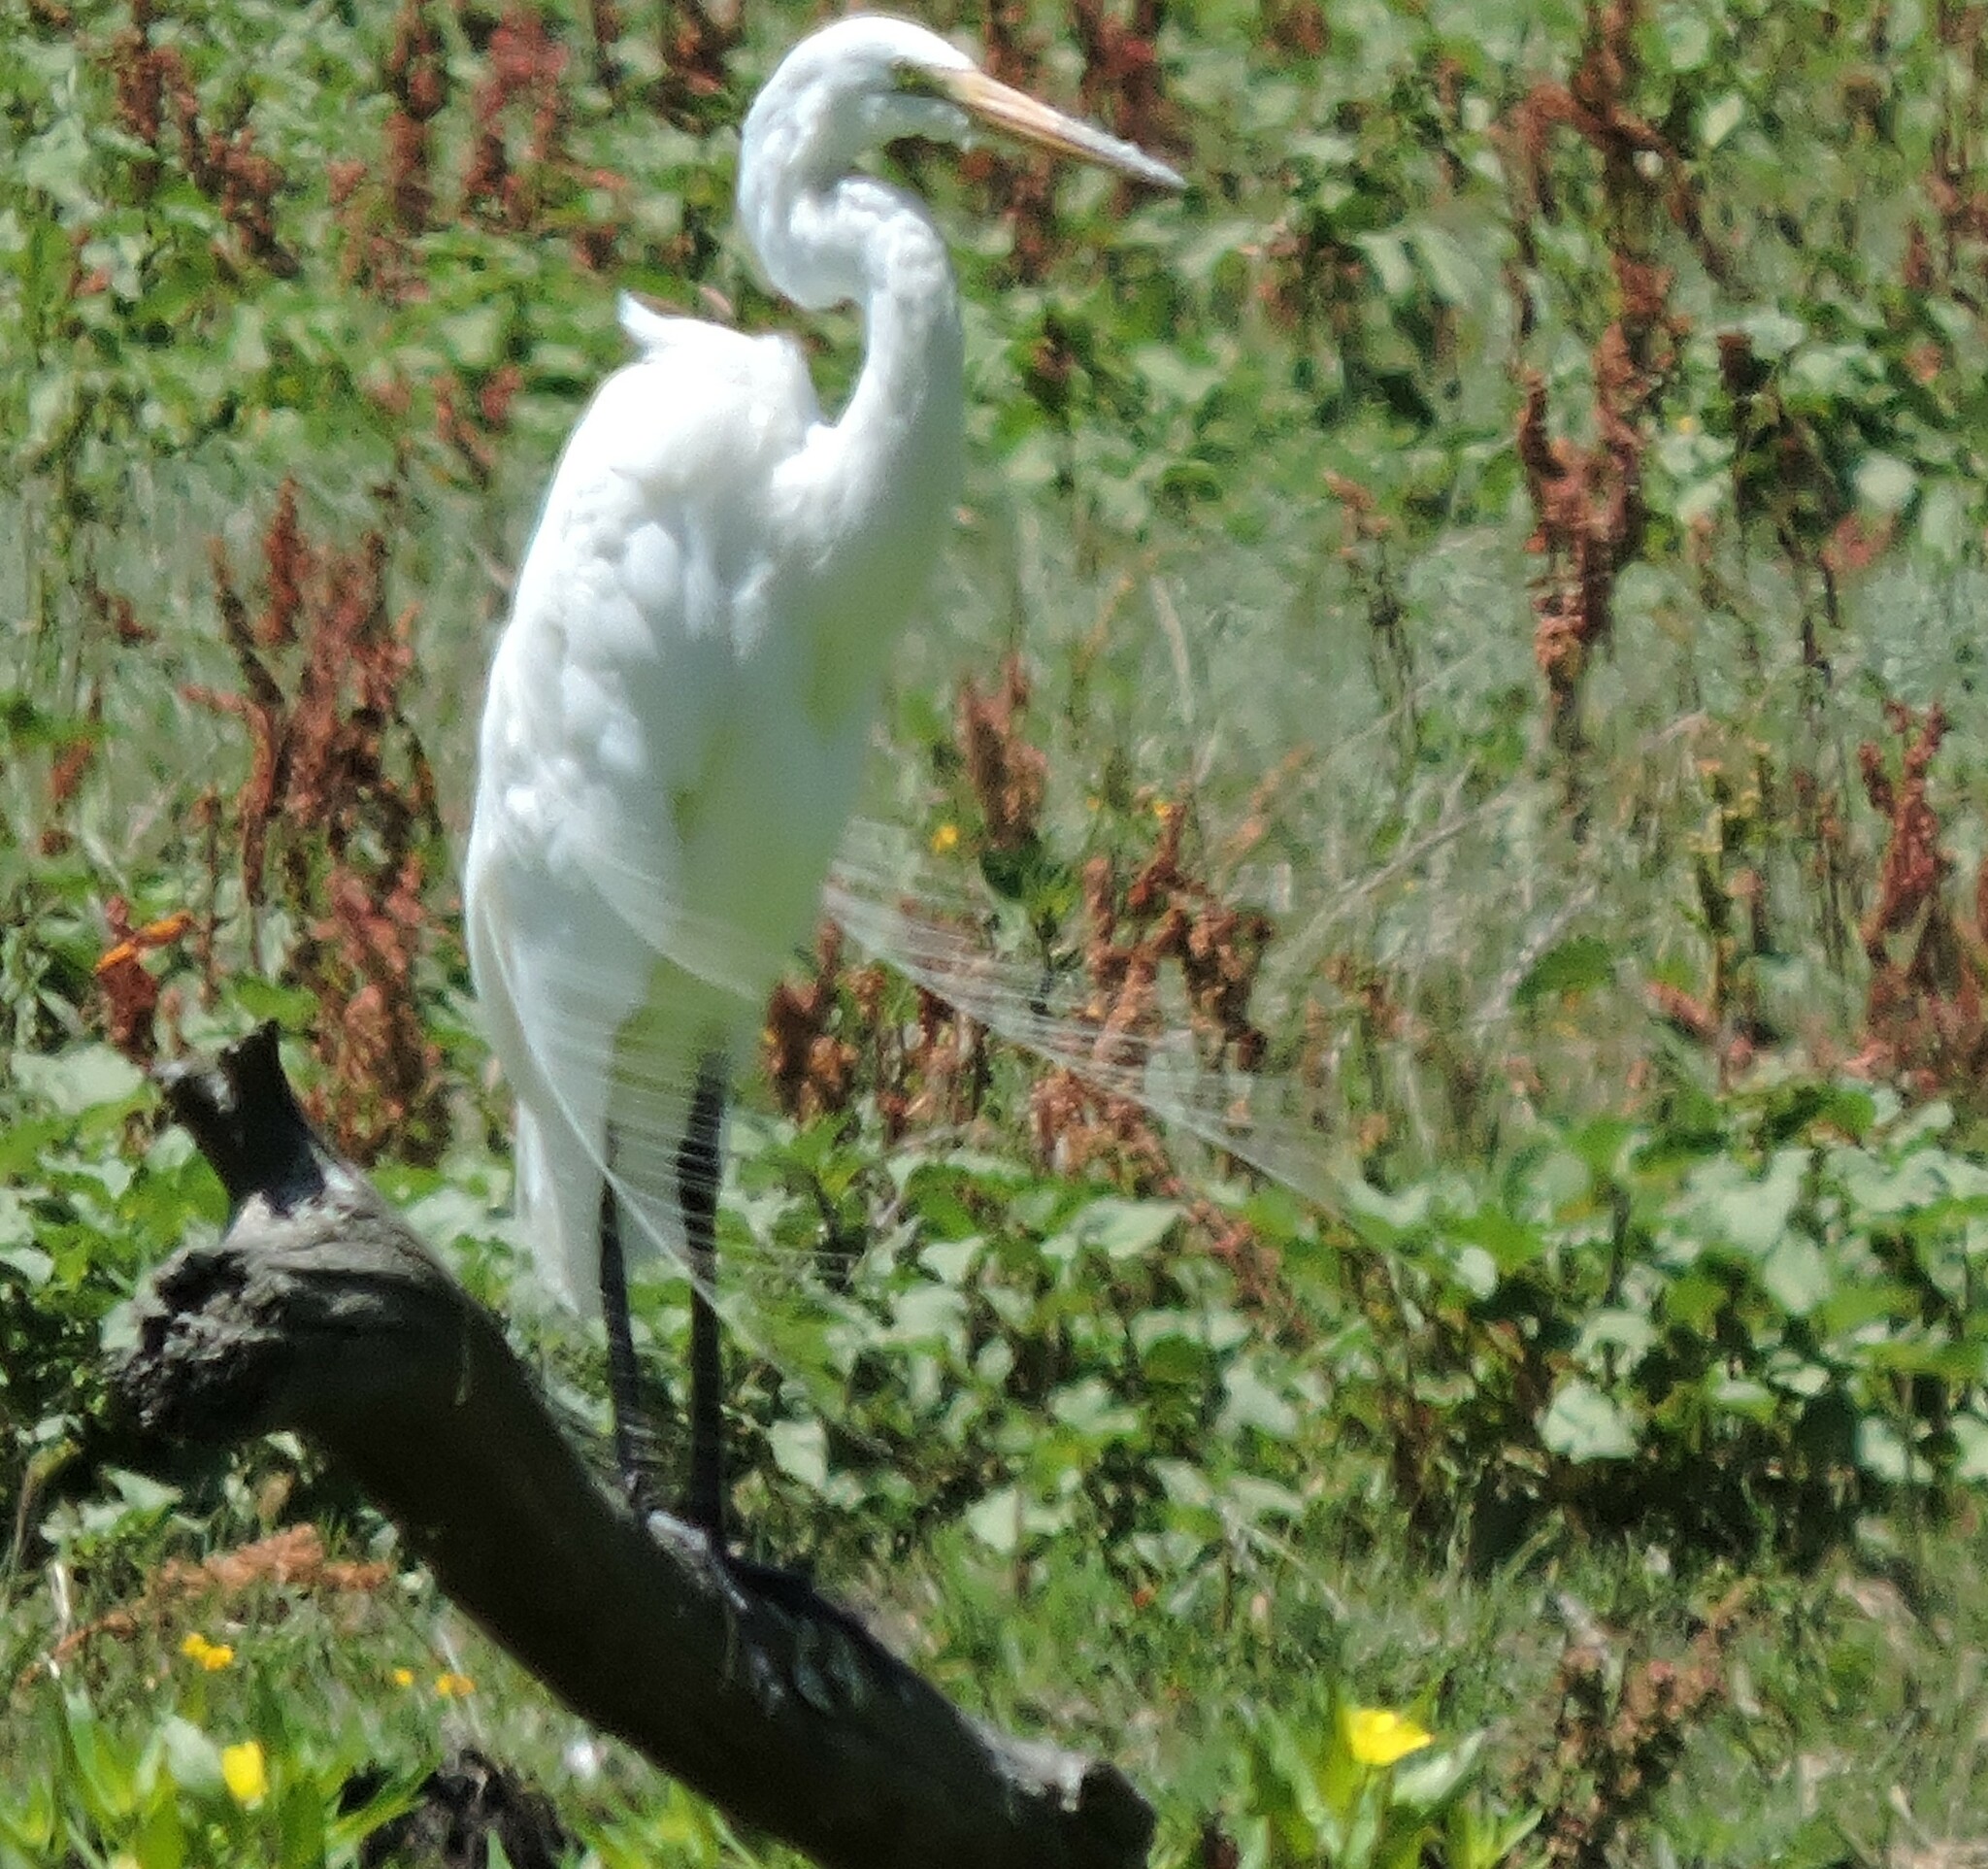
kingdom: Animalia
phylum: Chordata
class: Aves
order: Pelecaniformes
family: Ardeidae
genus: Ardea
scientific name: Ardea alba
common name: Great egret
